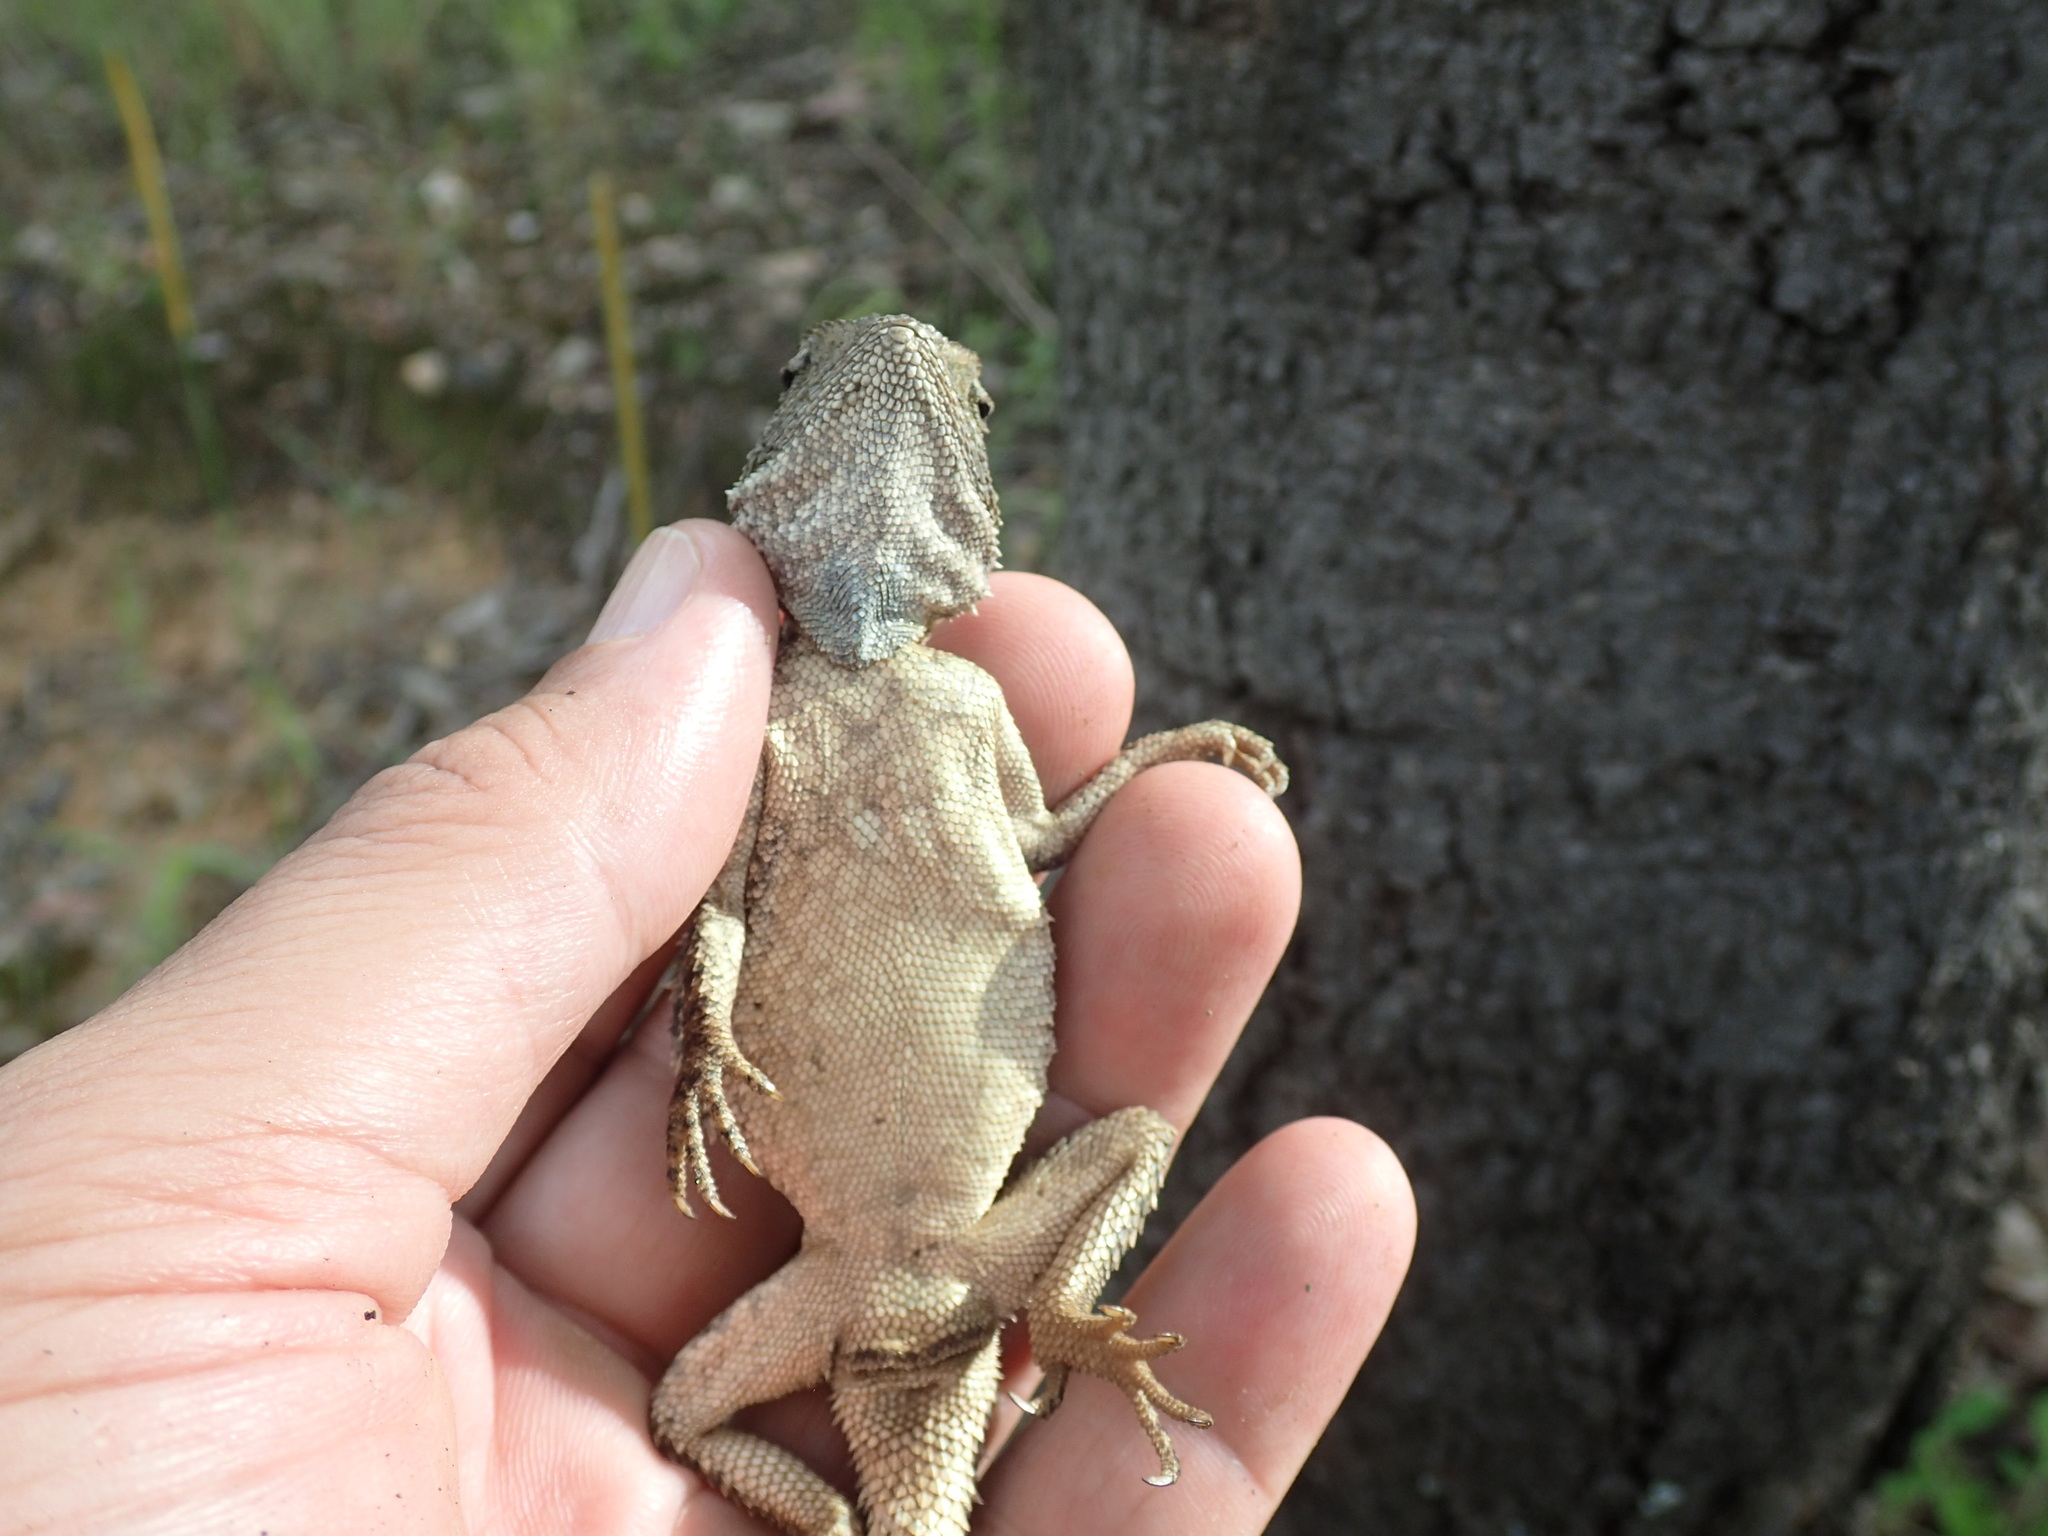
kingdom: Animalia
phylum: Chordata
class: Squamata
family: Agamidae
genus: Agama
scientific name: Agama armata
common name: Northern ground agama
